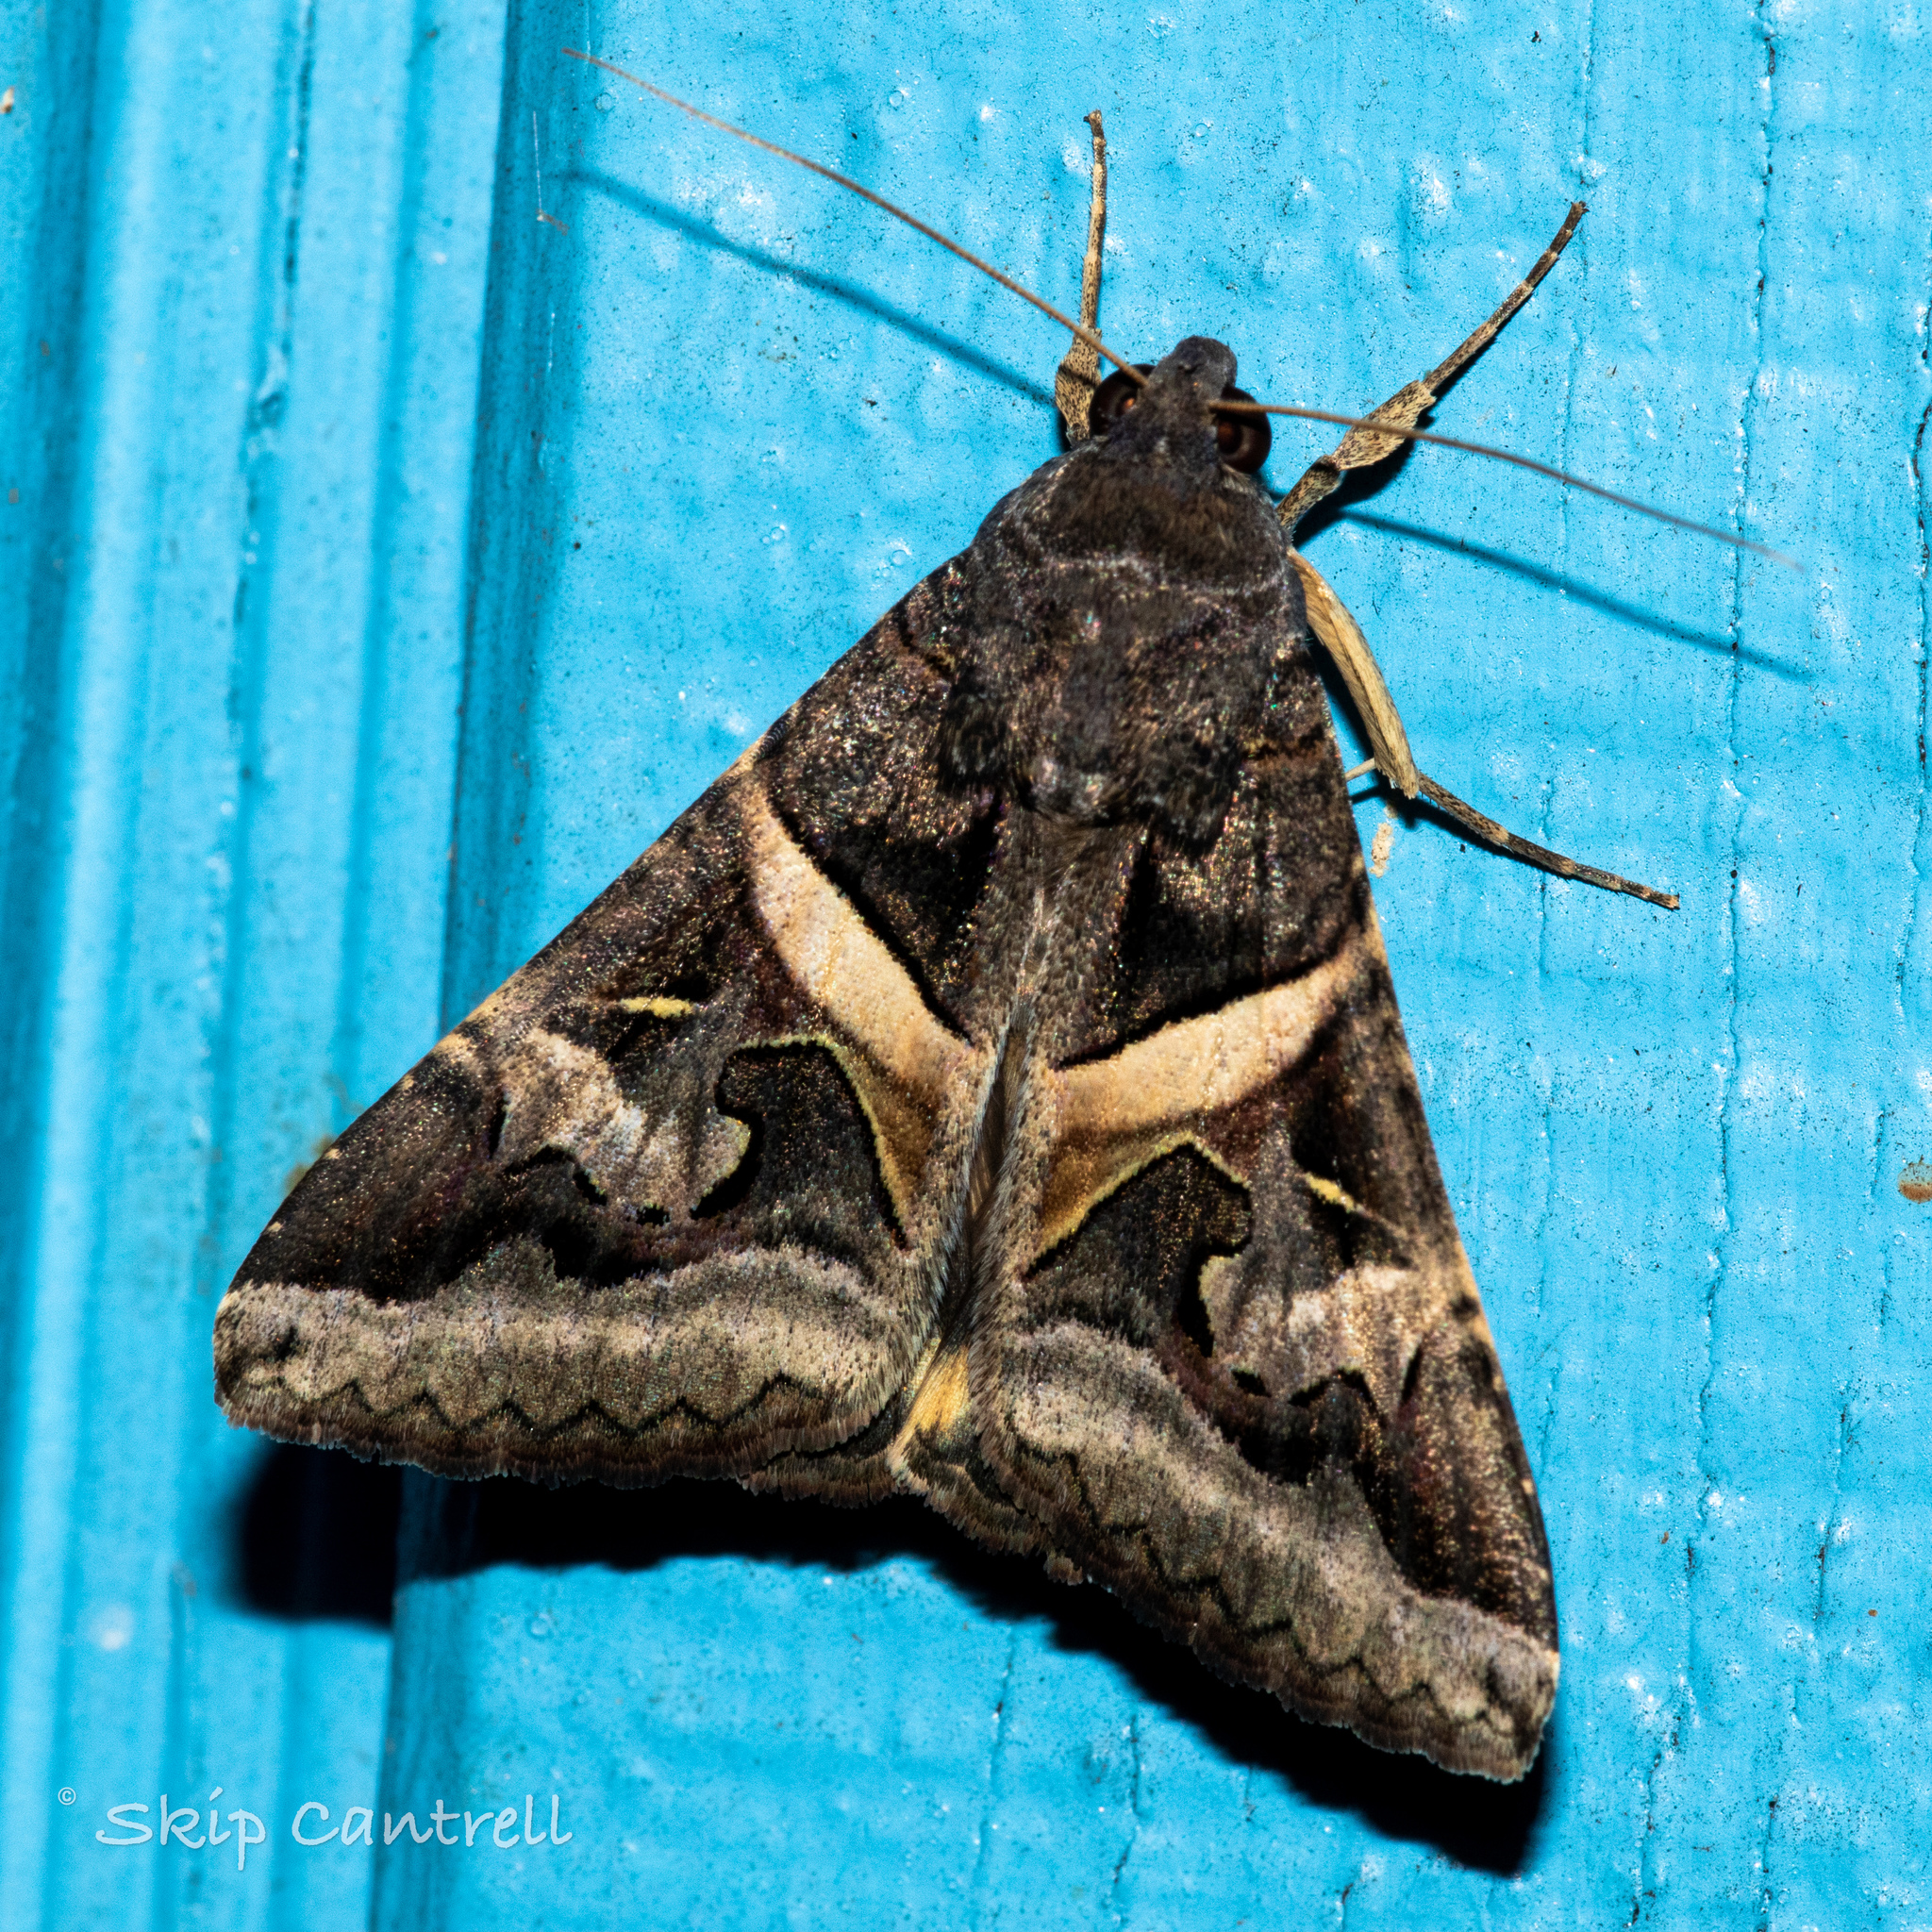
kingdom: Animalia
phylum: Arthropoda
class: Insecta
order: Lepidoptera
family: Erebidae
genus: Melipotis
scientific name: Melipotis indomita
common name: Moth
